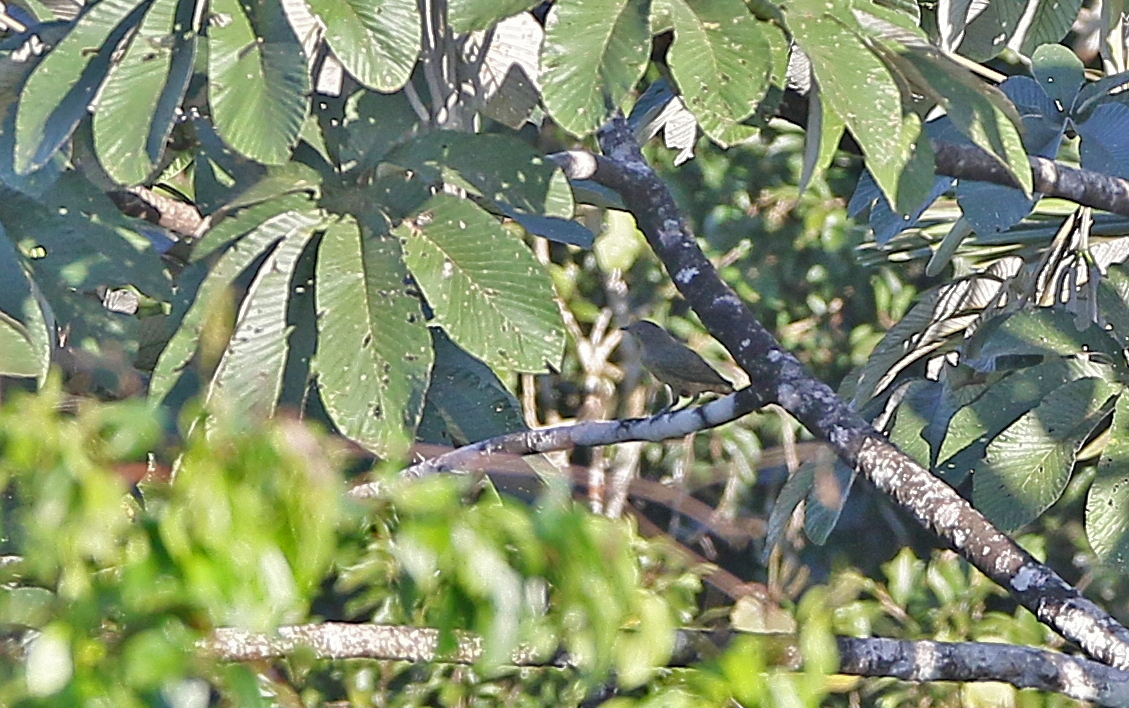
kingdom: Animalia
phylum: Chordata
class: Aves
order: Passeriformes
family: Cotingidae
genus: Cotinga
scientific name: Cotinga maynana
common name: Plum-throated cotinga
